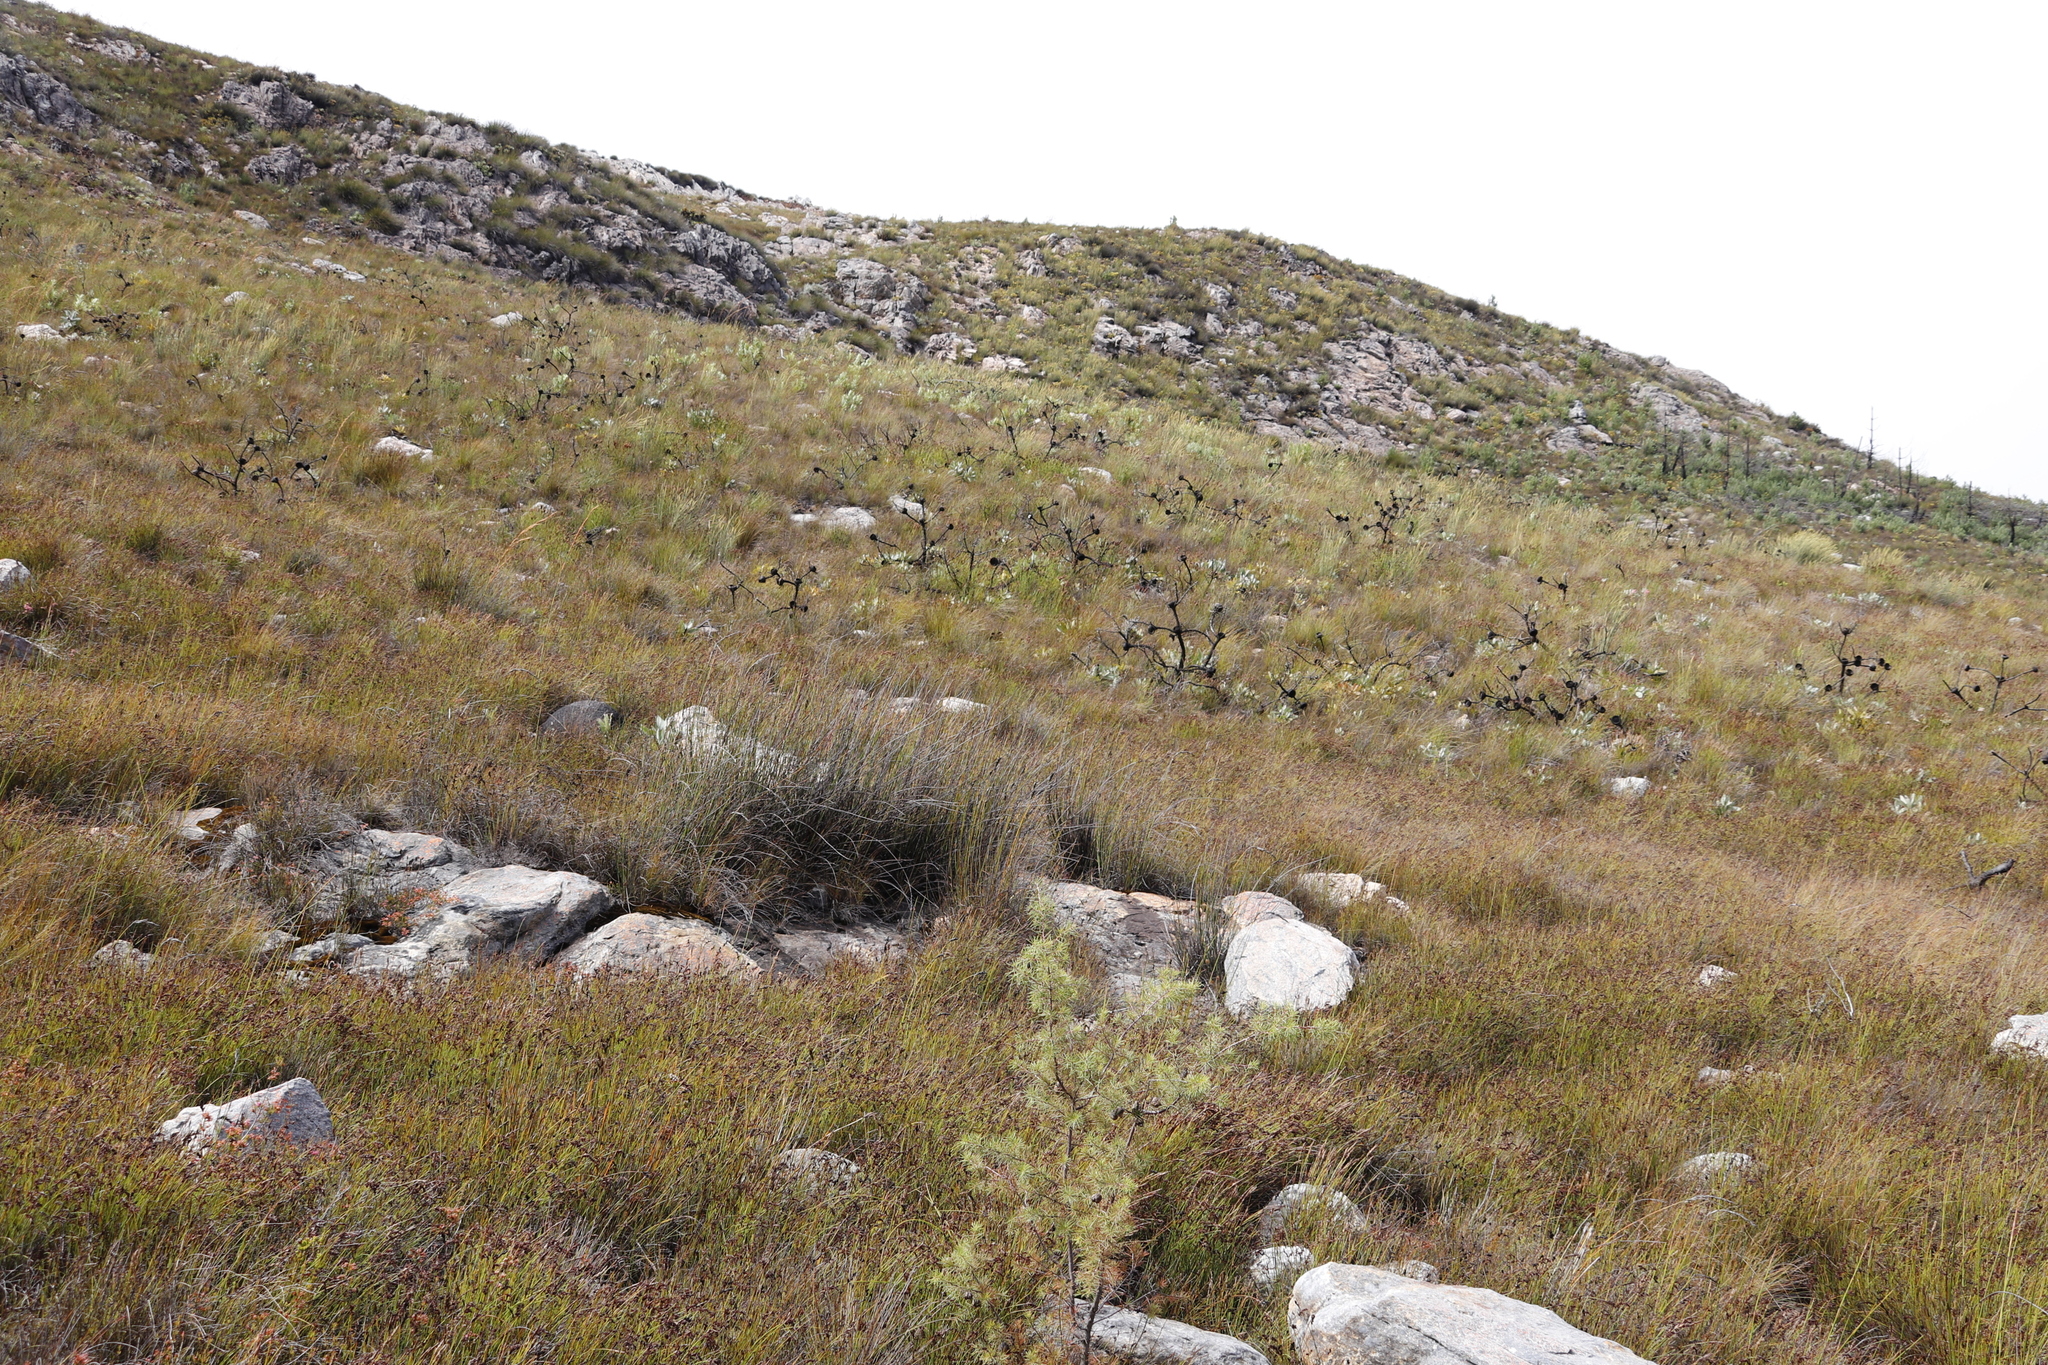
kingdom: Plantae
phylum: Tracheophyta
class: Magnoliopsida
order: Proteales
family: Proteaceae
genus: Protea
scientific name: Protea magnifica
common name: Bearded sugarbush
